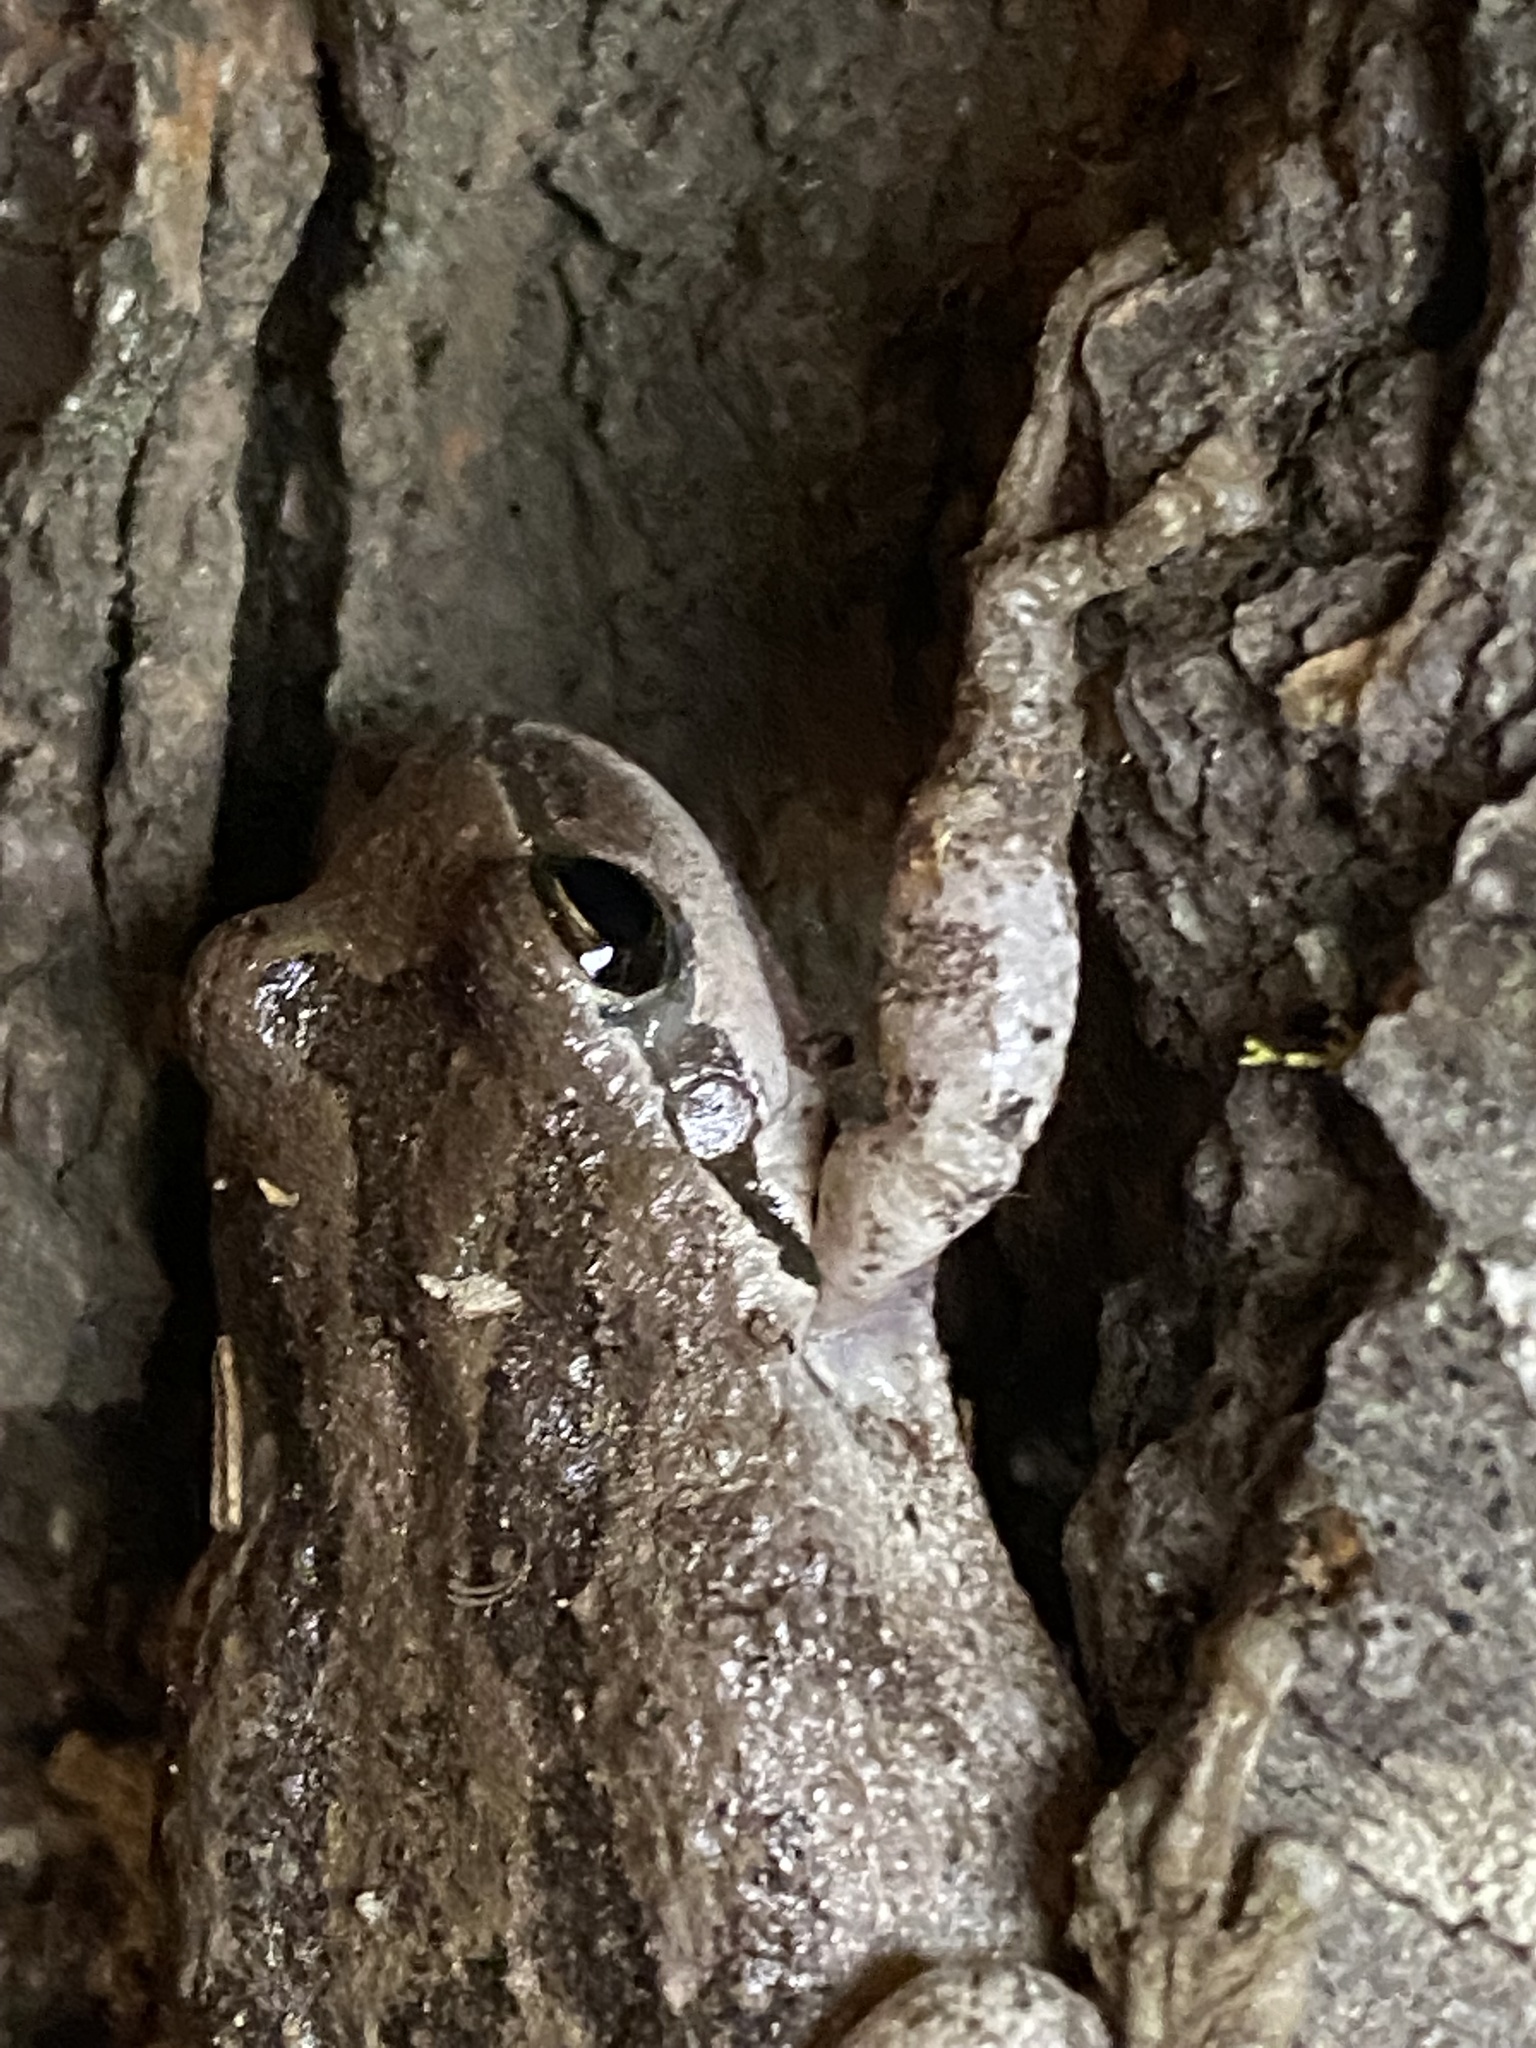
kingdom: Animalia
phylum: Chordata
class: Amphibia
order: Anura
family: Hylidae
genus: Pseudacris
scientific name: Pseudacris regilla
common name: Pacific chorus frog
